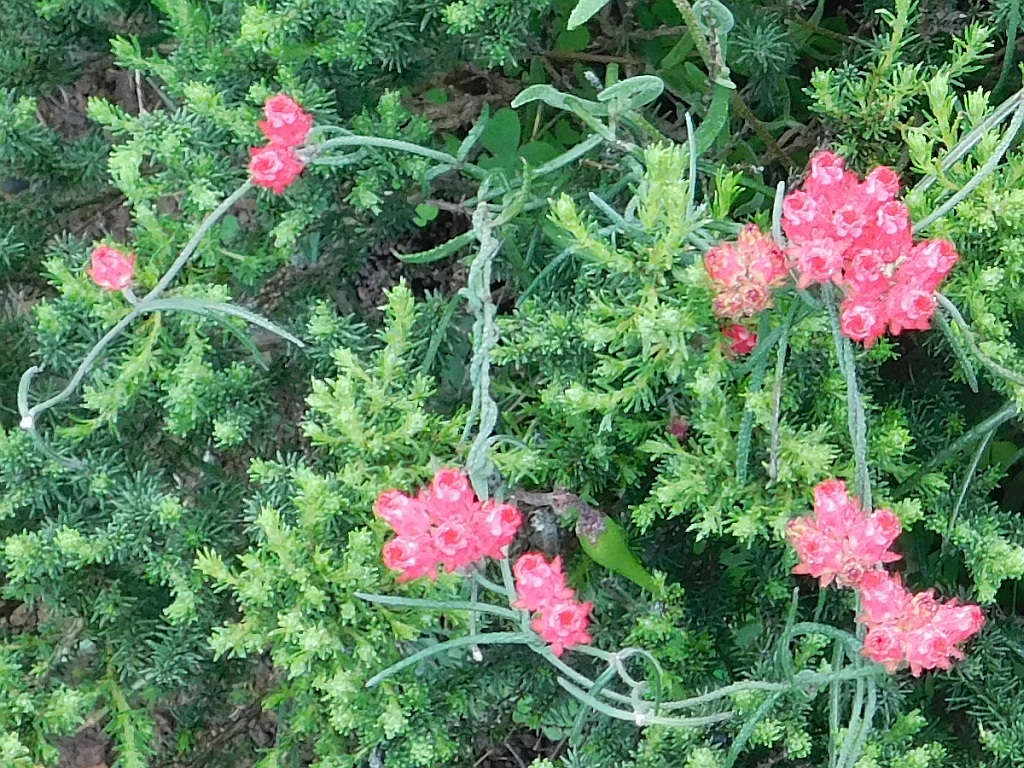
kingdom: Plantae
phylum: Tracheophyta
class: Magnoliopsida
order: Gentianales
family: Apocynaceae
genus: Microloma
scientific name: Microloma tenuifolium
